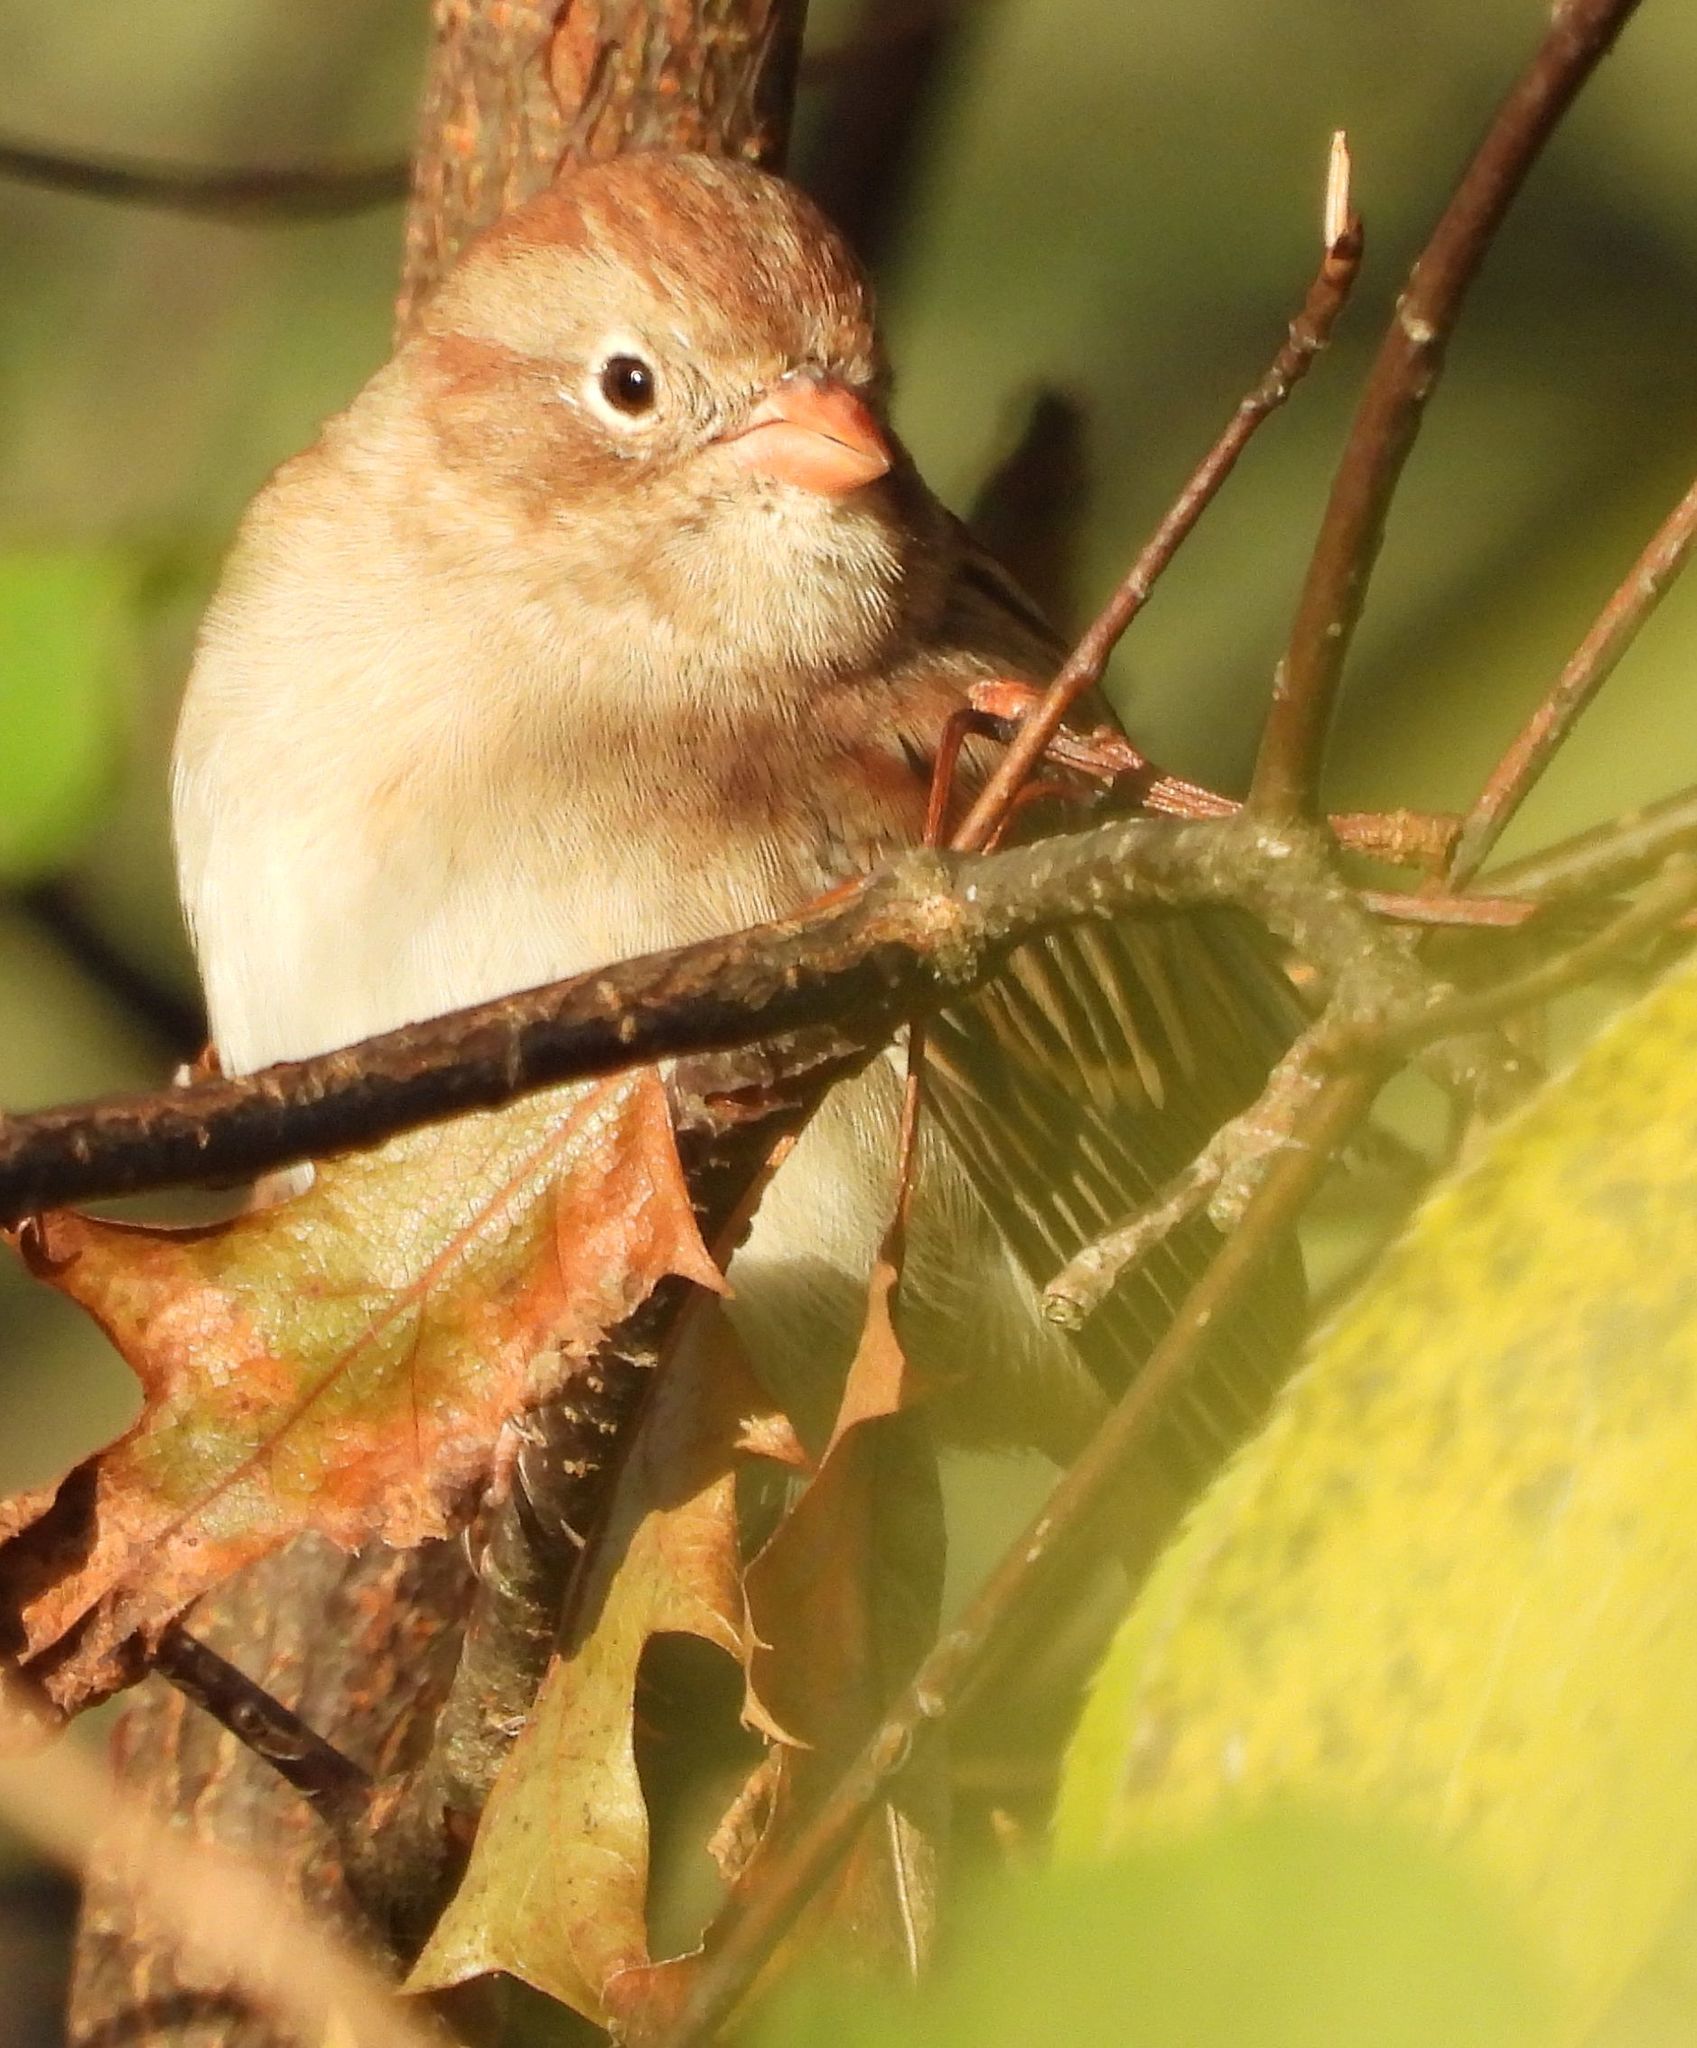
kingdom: Animalia
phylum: Chordata
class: Aves
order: Passeriformes
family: Passerellidae
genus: Spizella
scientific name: Spizella pusilla
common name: Field sparrow
